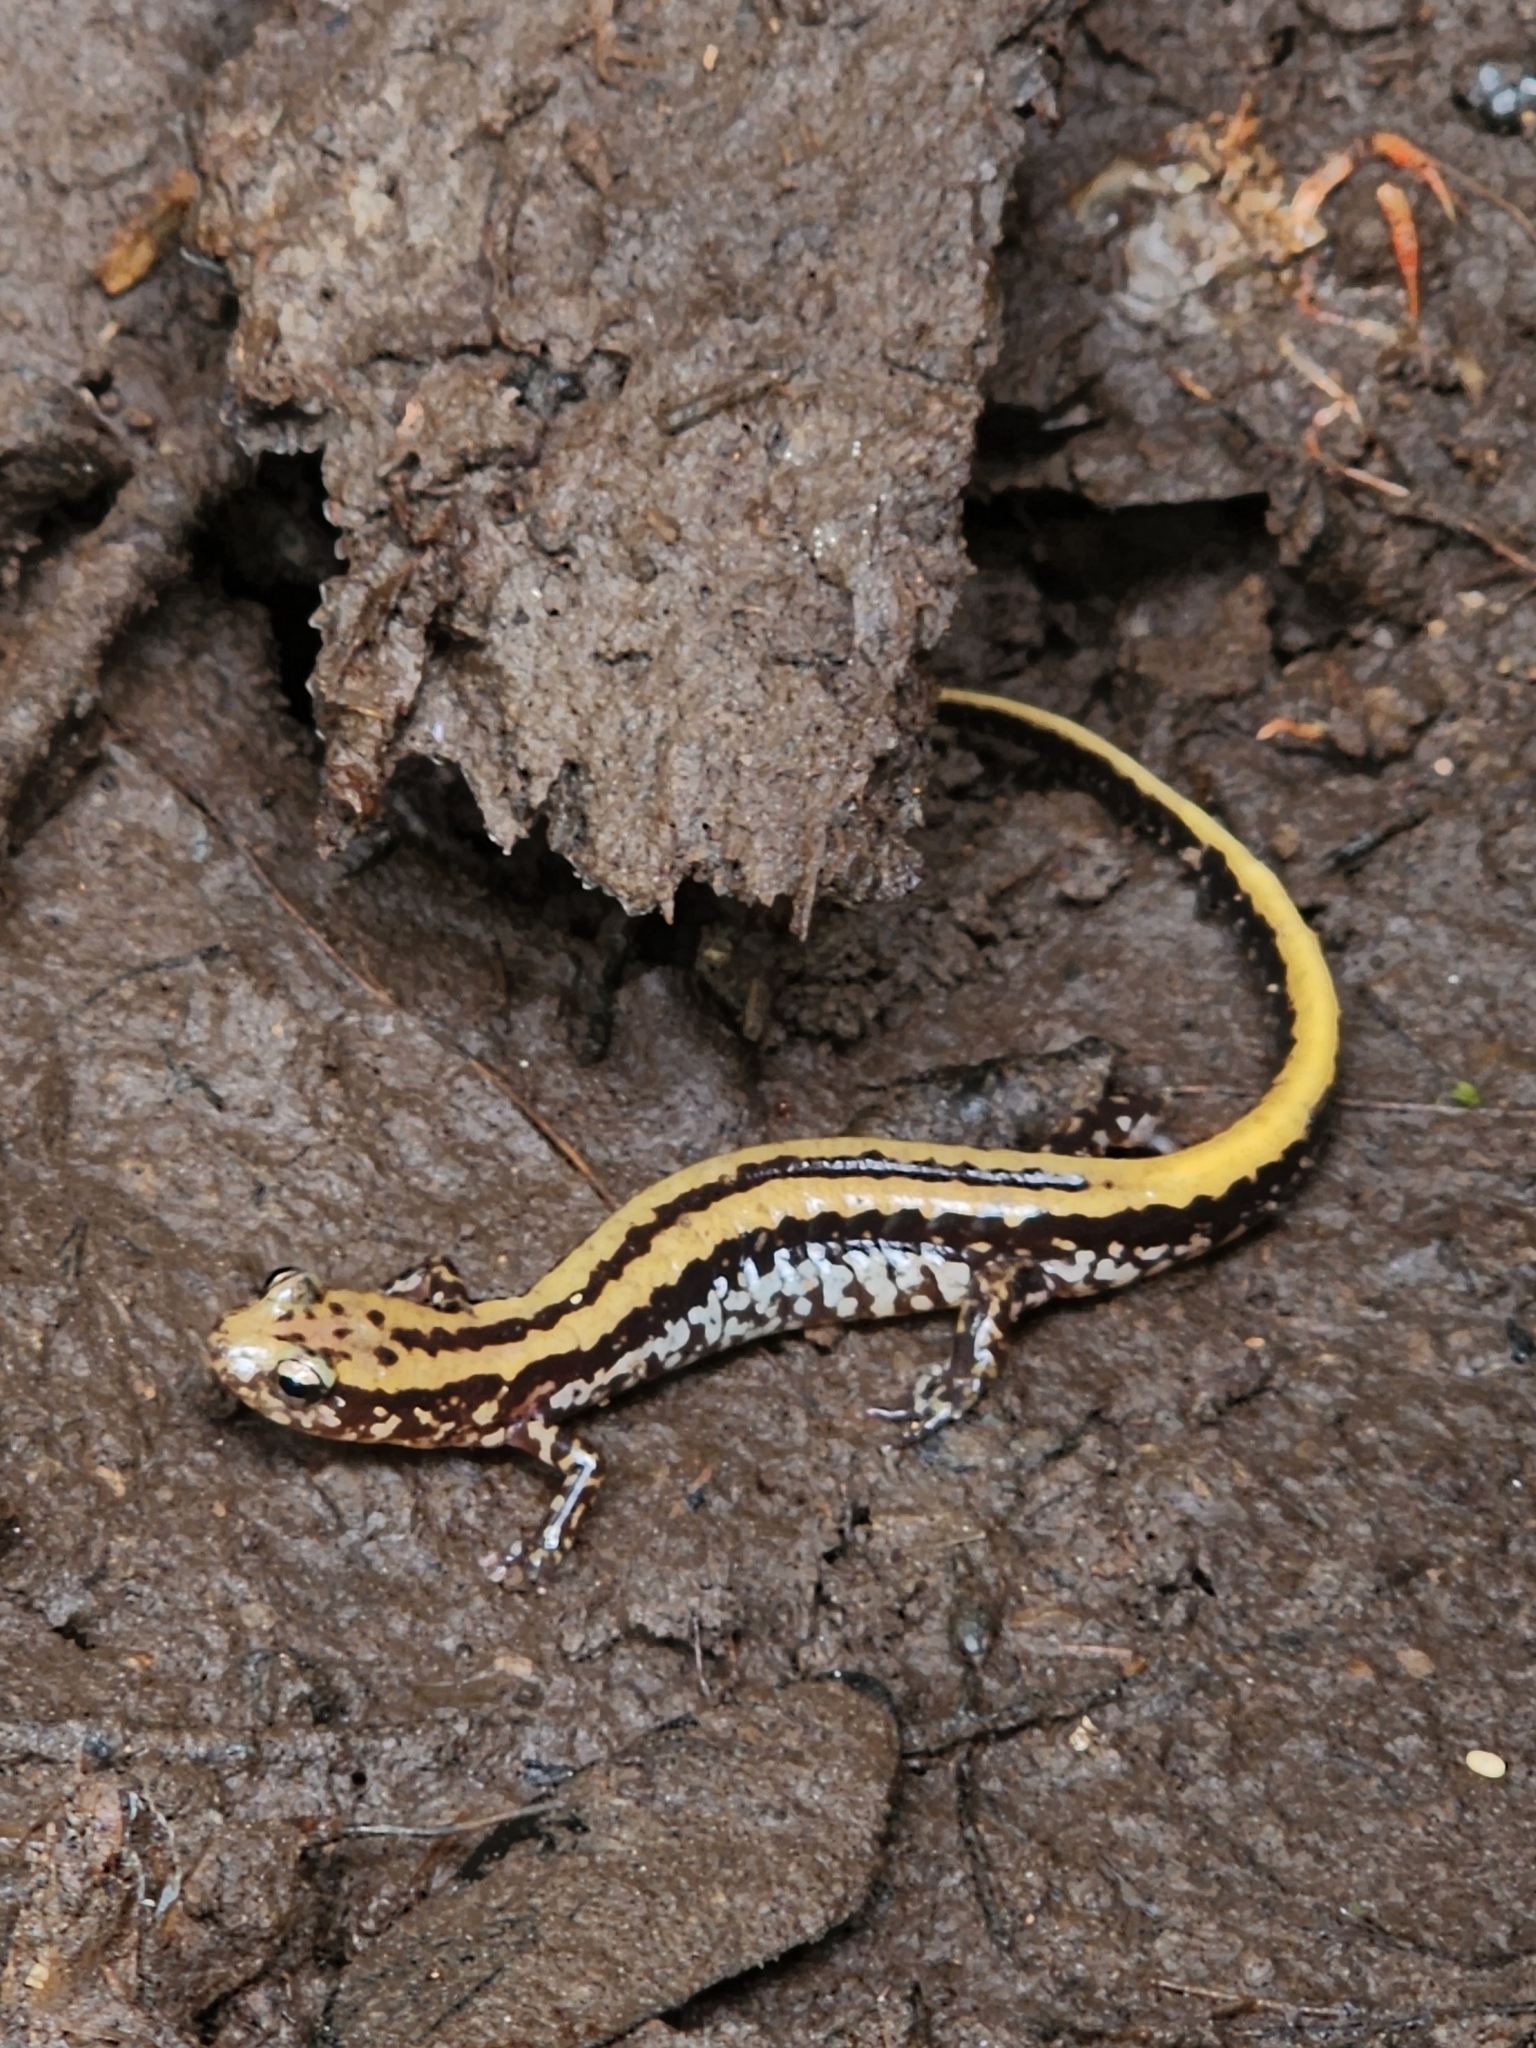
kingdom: Animalia
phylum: Chordata
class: Amphibia
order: Caudata
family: Plethodontidae
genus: Eurycea
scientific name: Eurycea guttolineata
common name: Three-lined salamander
